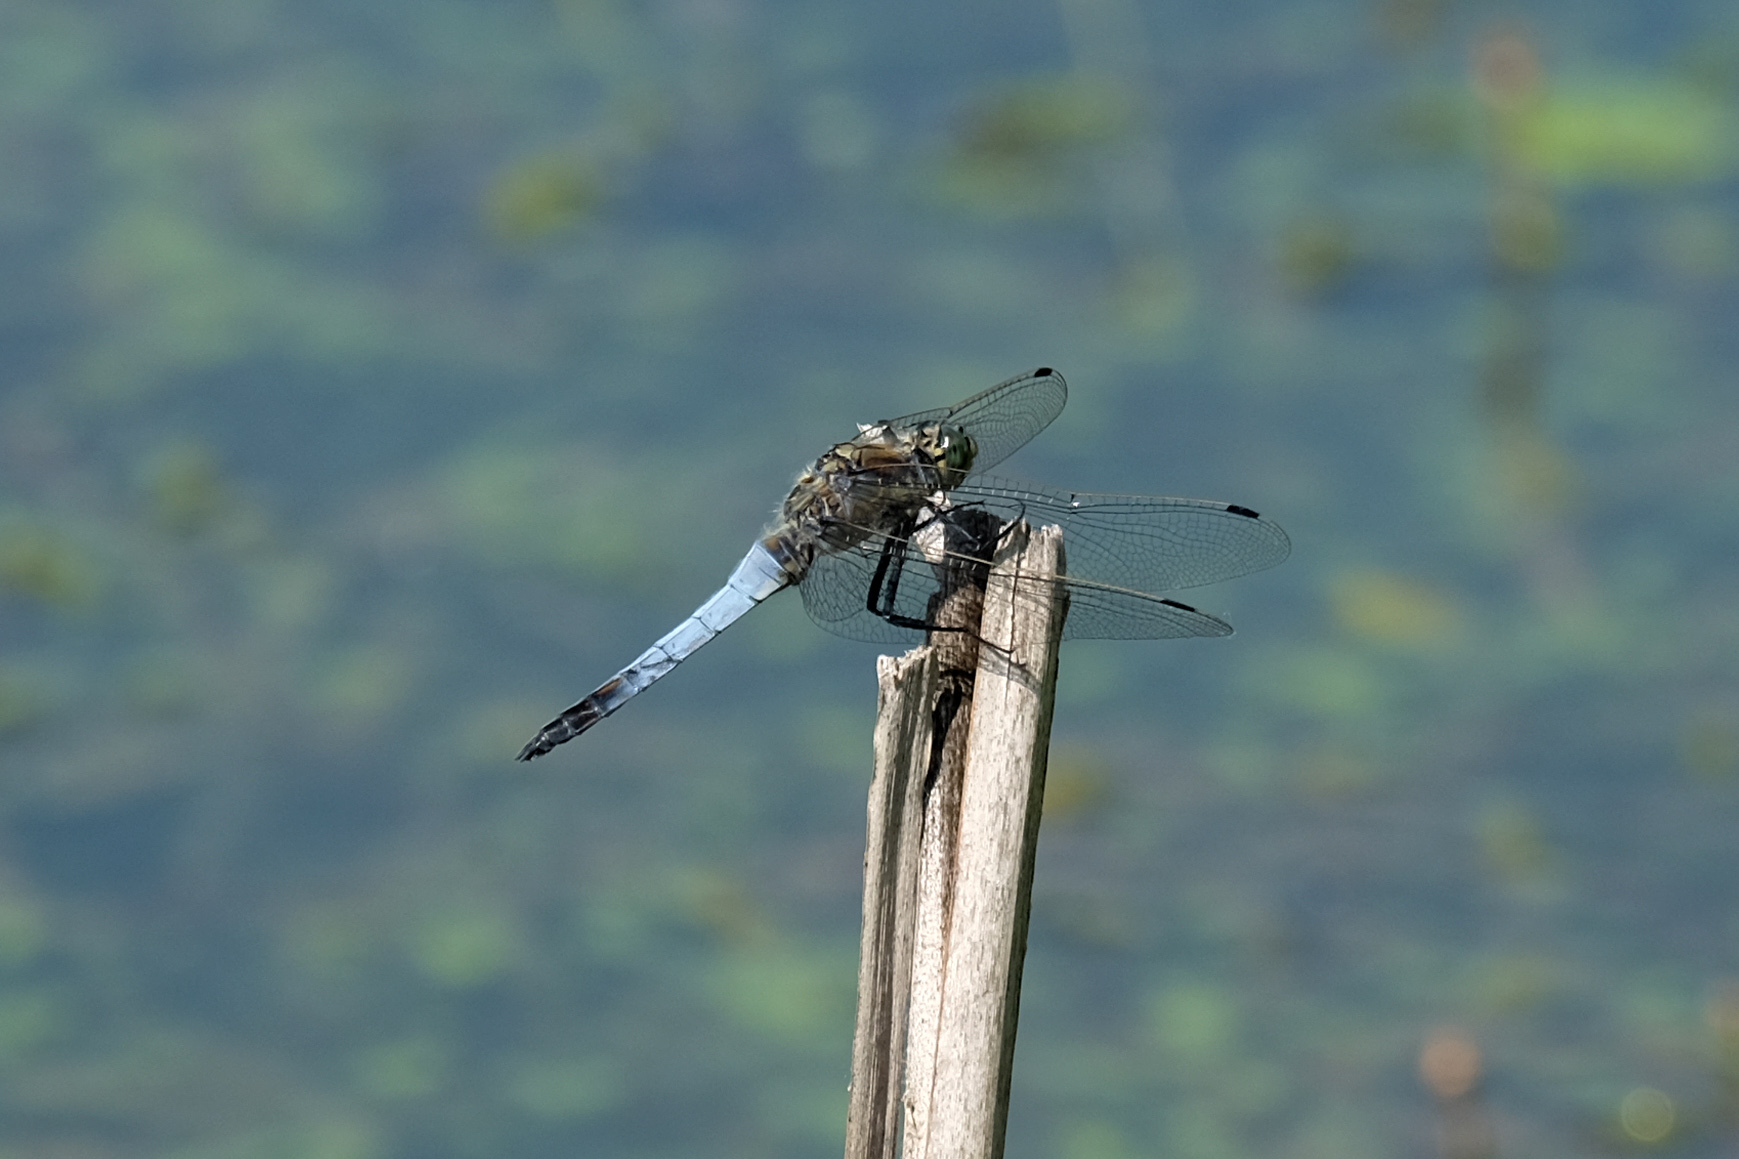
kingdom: Animalia
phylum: Arthropoda
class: Insecta
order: Odonata
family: Libellulidae
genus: Orthetrum
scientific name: Orthetrum cancellatum
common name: Black-tailed skimmer
